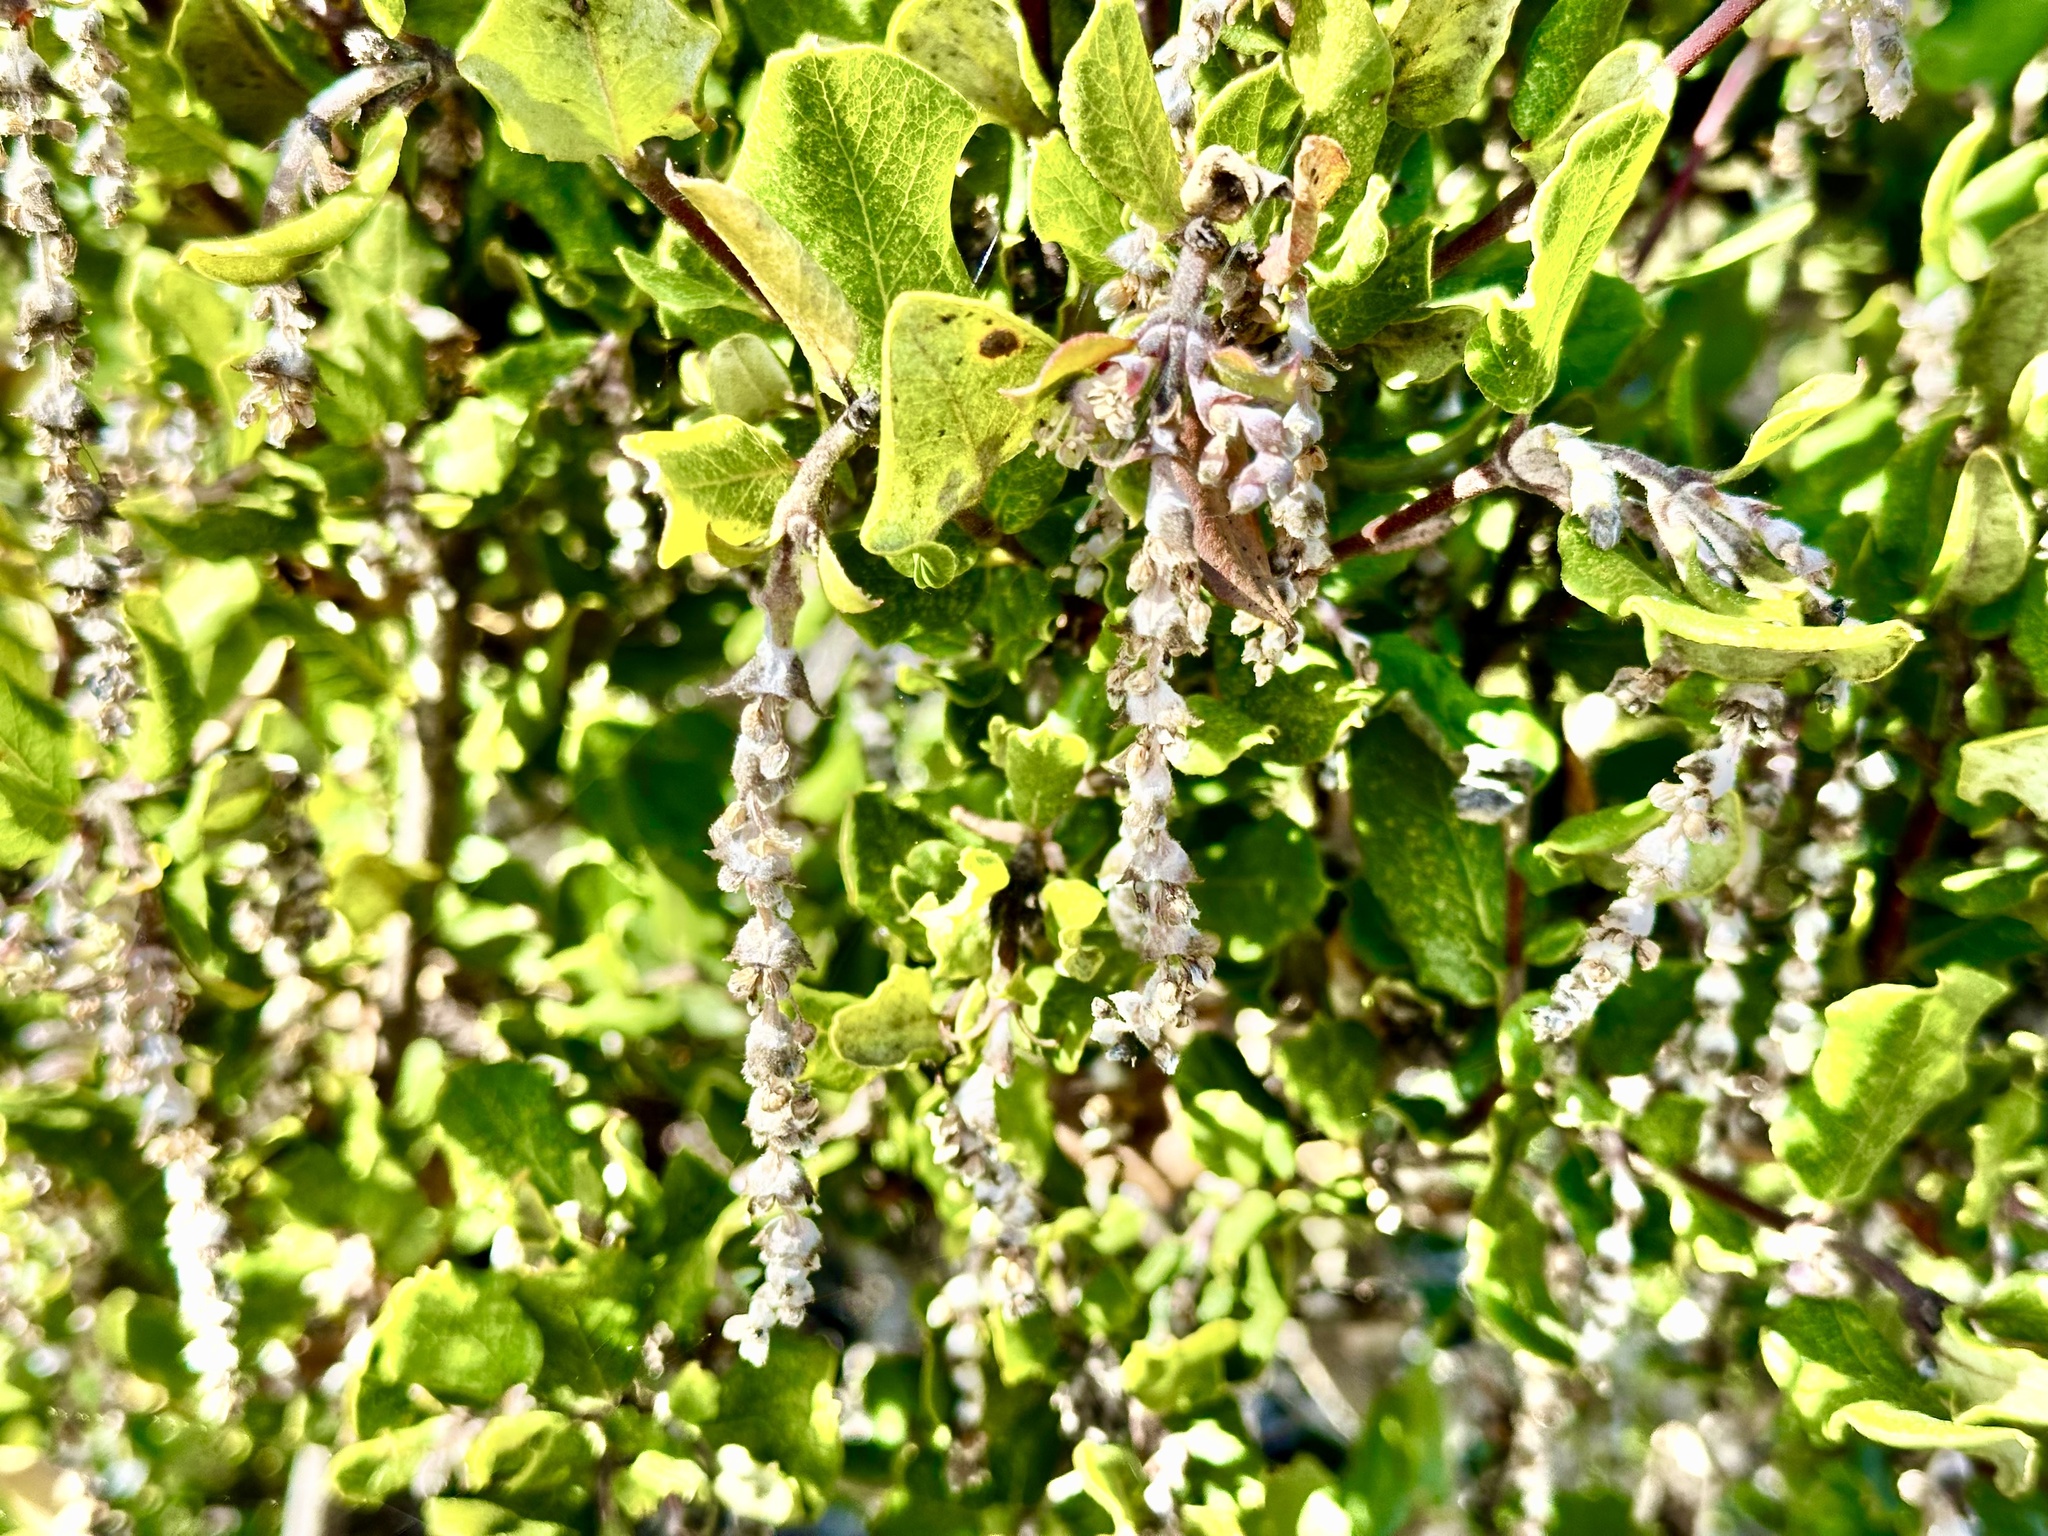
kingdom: Plantae
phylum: Tracheophyta
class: Magnoliopsida
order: Garryales
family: Garryaceae
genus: Garrya
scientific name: Garrya elliptica
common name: Silk-tassel
